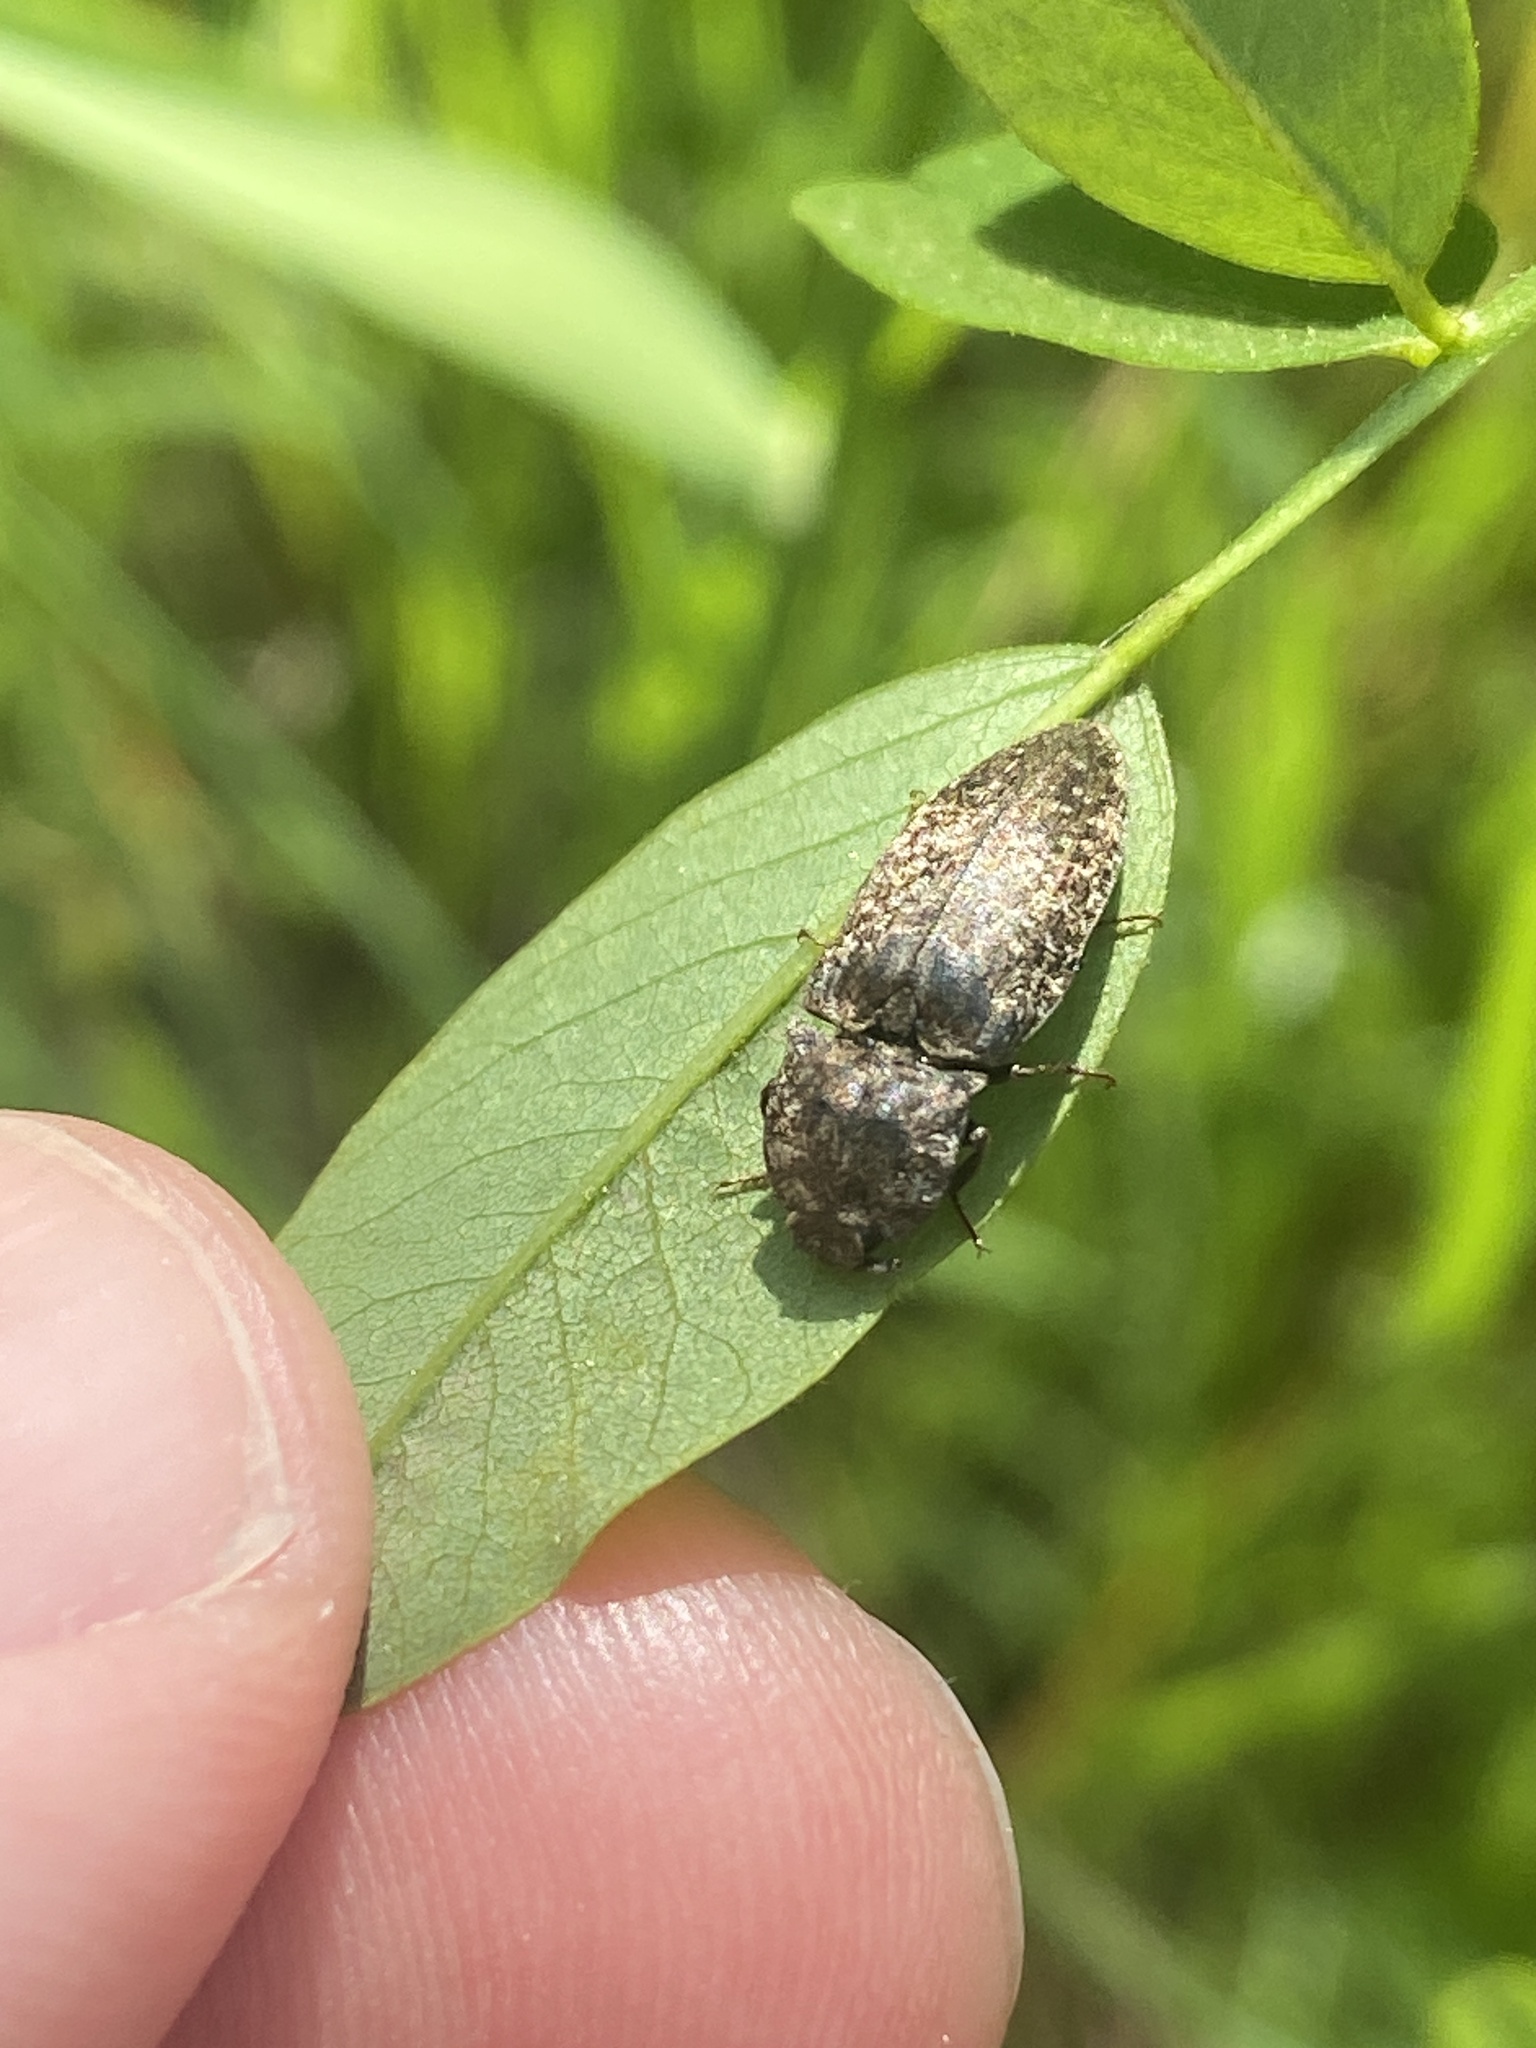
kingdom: Animalia
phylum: Arthropoda
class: Insecta
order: Coleoptera
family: Elateridae
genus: Agrypnus
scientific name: Agrypnus murinus
